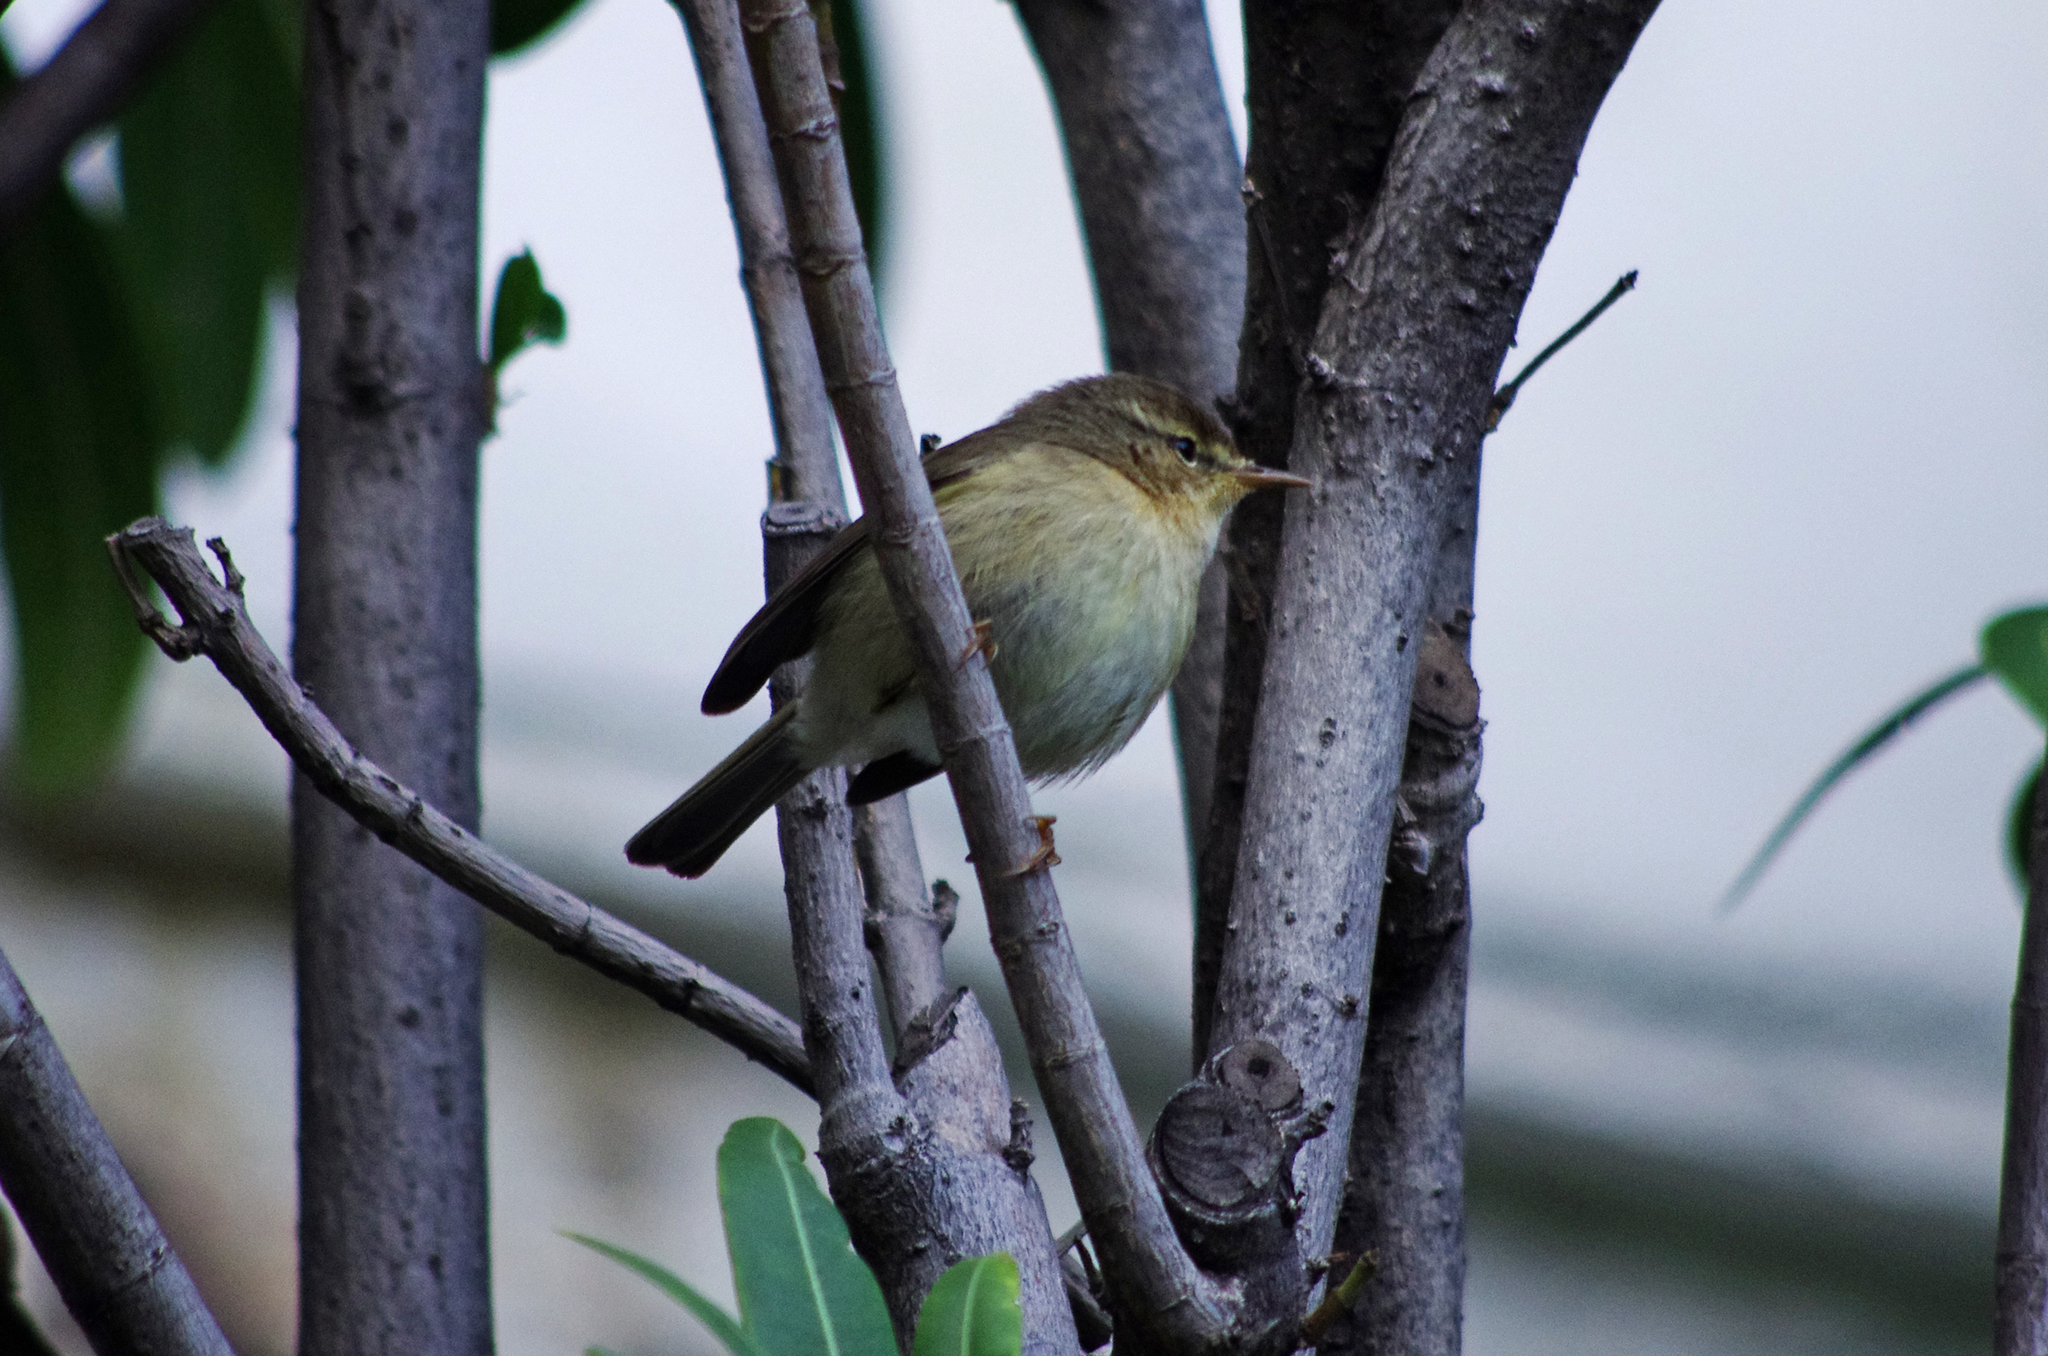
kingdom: Animalia
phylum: Chordata
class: Aves
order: Passeriformes
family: Phylloscopidae
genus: Phylloscopus
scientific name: Phylloscopus canariensis
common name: Canary islands chiffchaff
